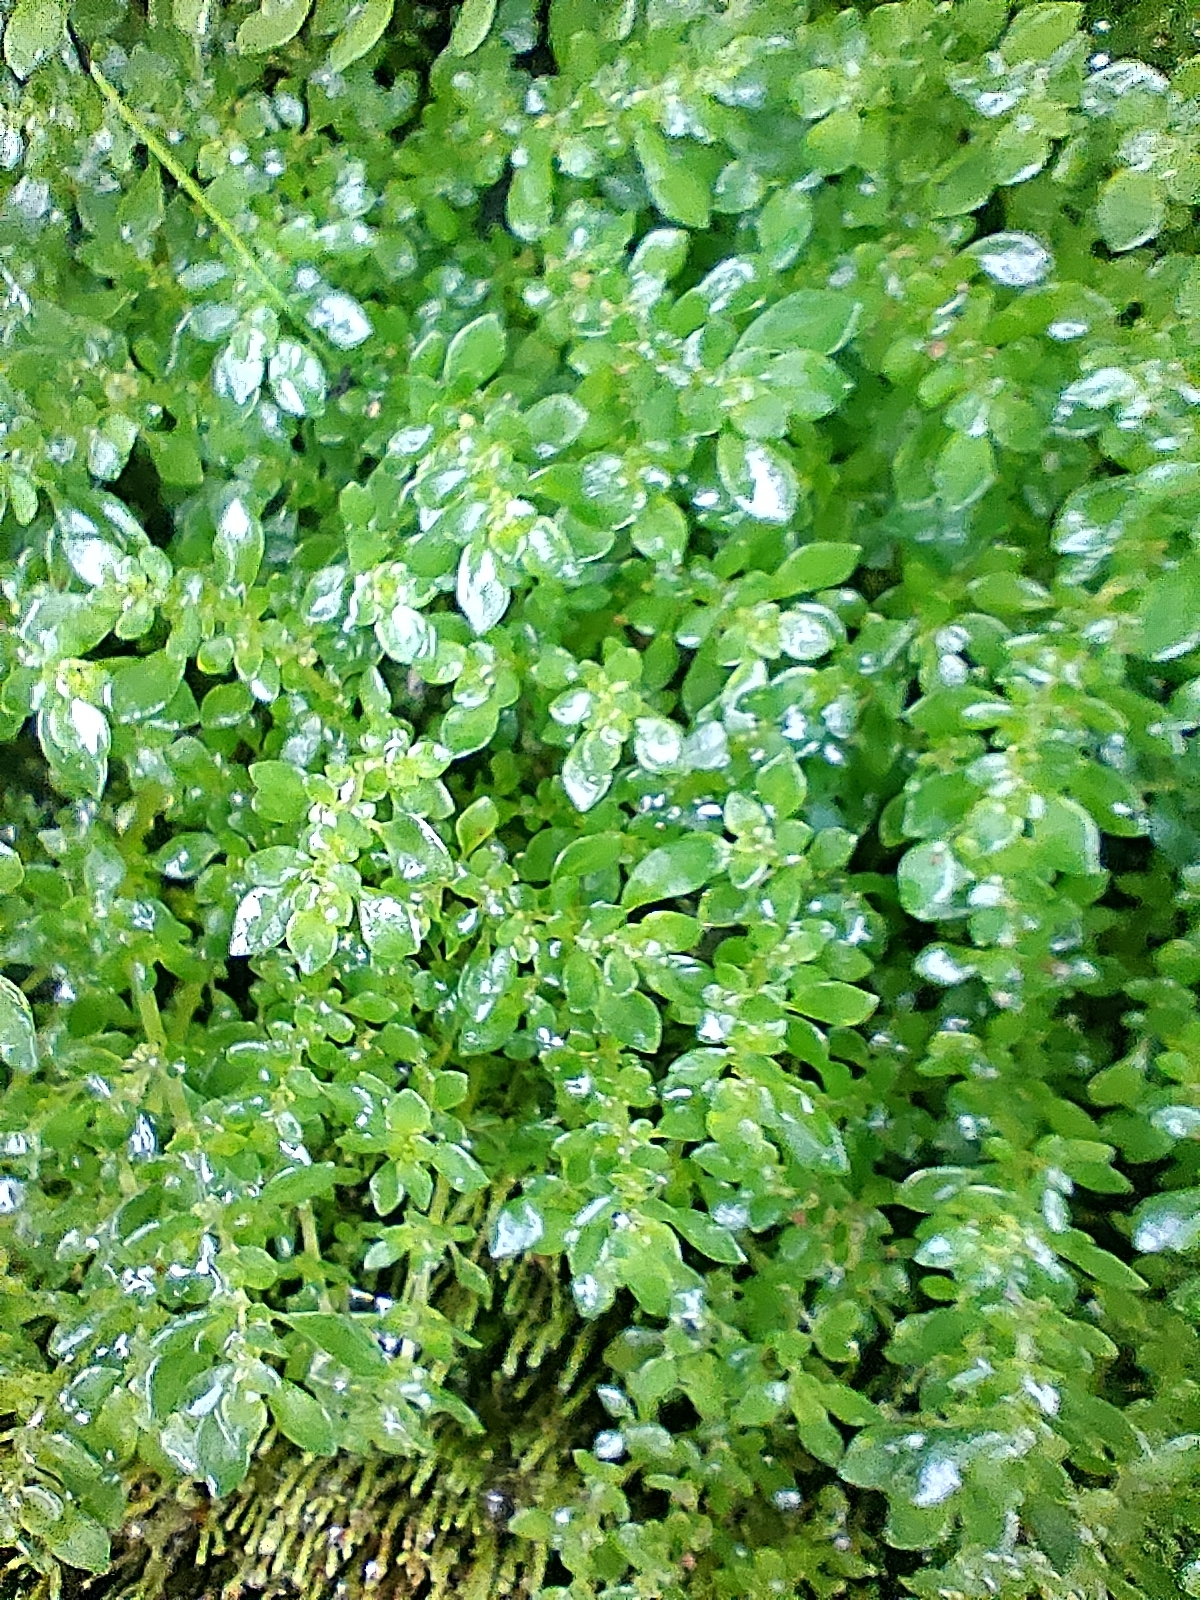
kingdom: Plantae
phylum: Tracheophyta
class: Magnoliopsida
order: Rosales
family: Urticaceae
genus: Pilea
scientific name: Pilea microphylla
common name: Artillery-plant
